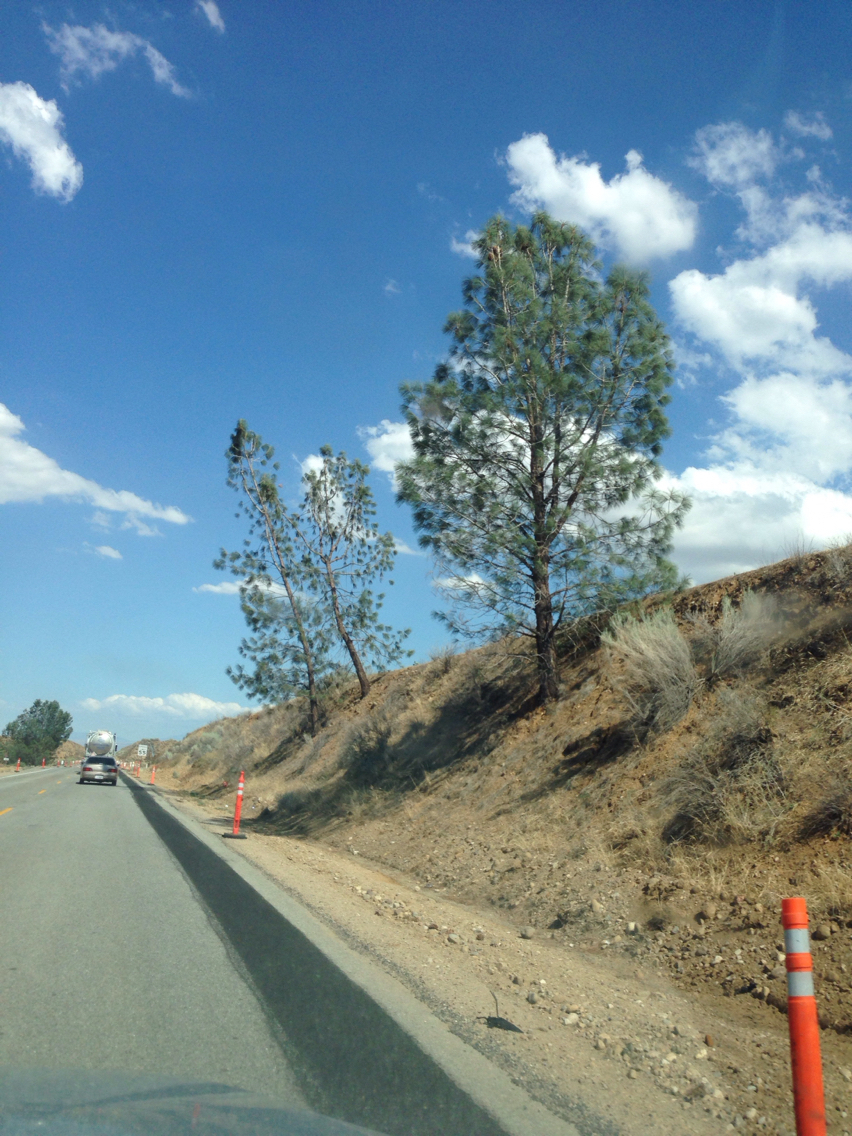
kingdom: Plantae
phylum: Tracheophyta
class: Pinopsida
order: Pinales
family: Pinaceae
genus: Pinus
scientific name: Pinus sabiniana
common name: Bull pine
